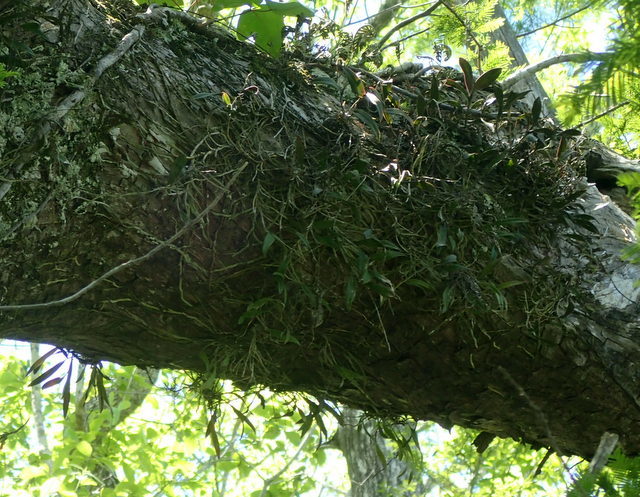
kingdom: Plantae
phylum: Tracheophyta
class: Liliopsida
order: Asparagales
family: Orchidaceae
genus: Epidendrum
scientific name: Epidendrum conopseum
